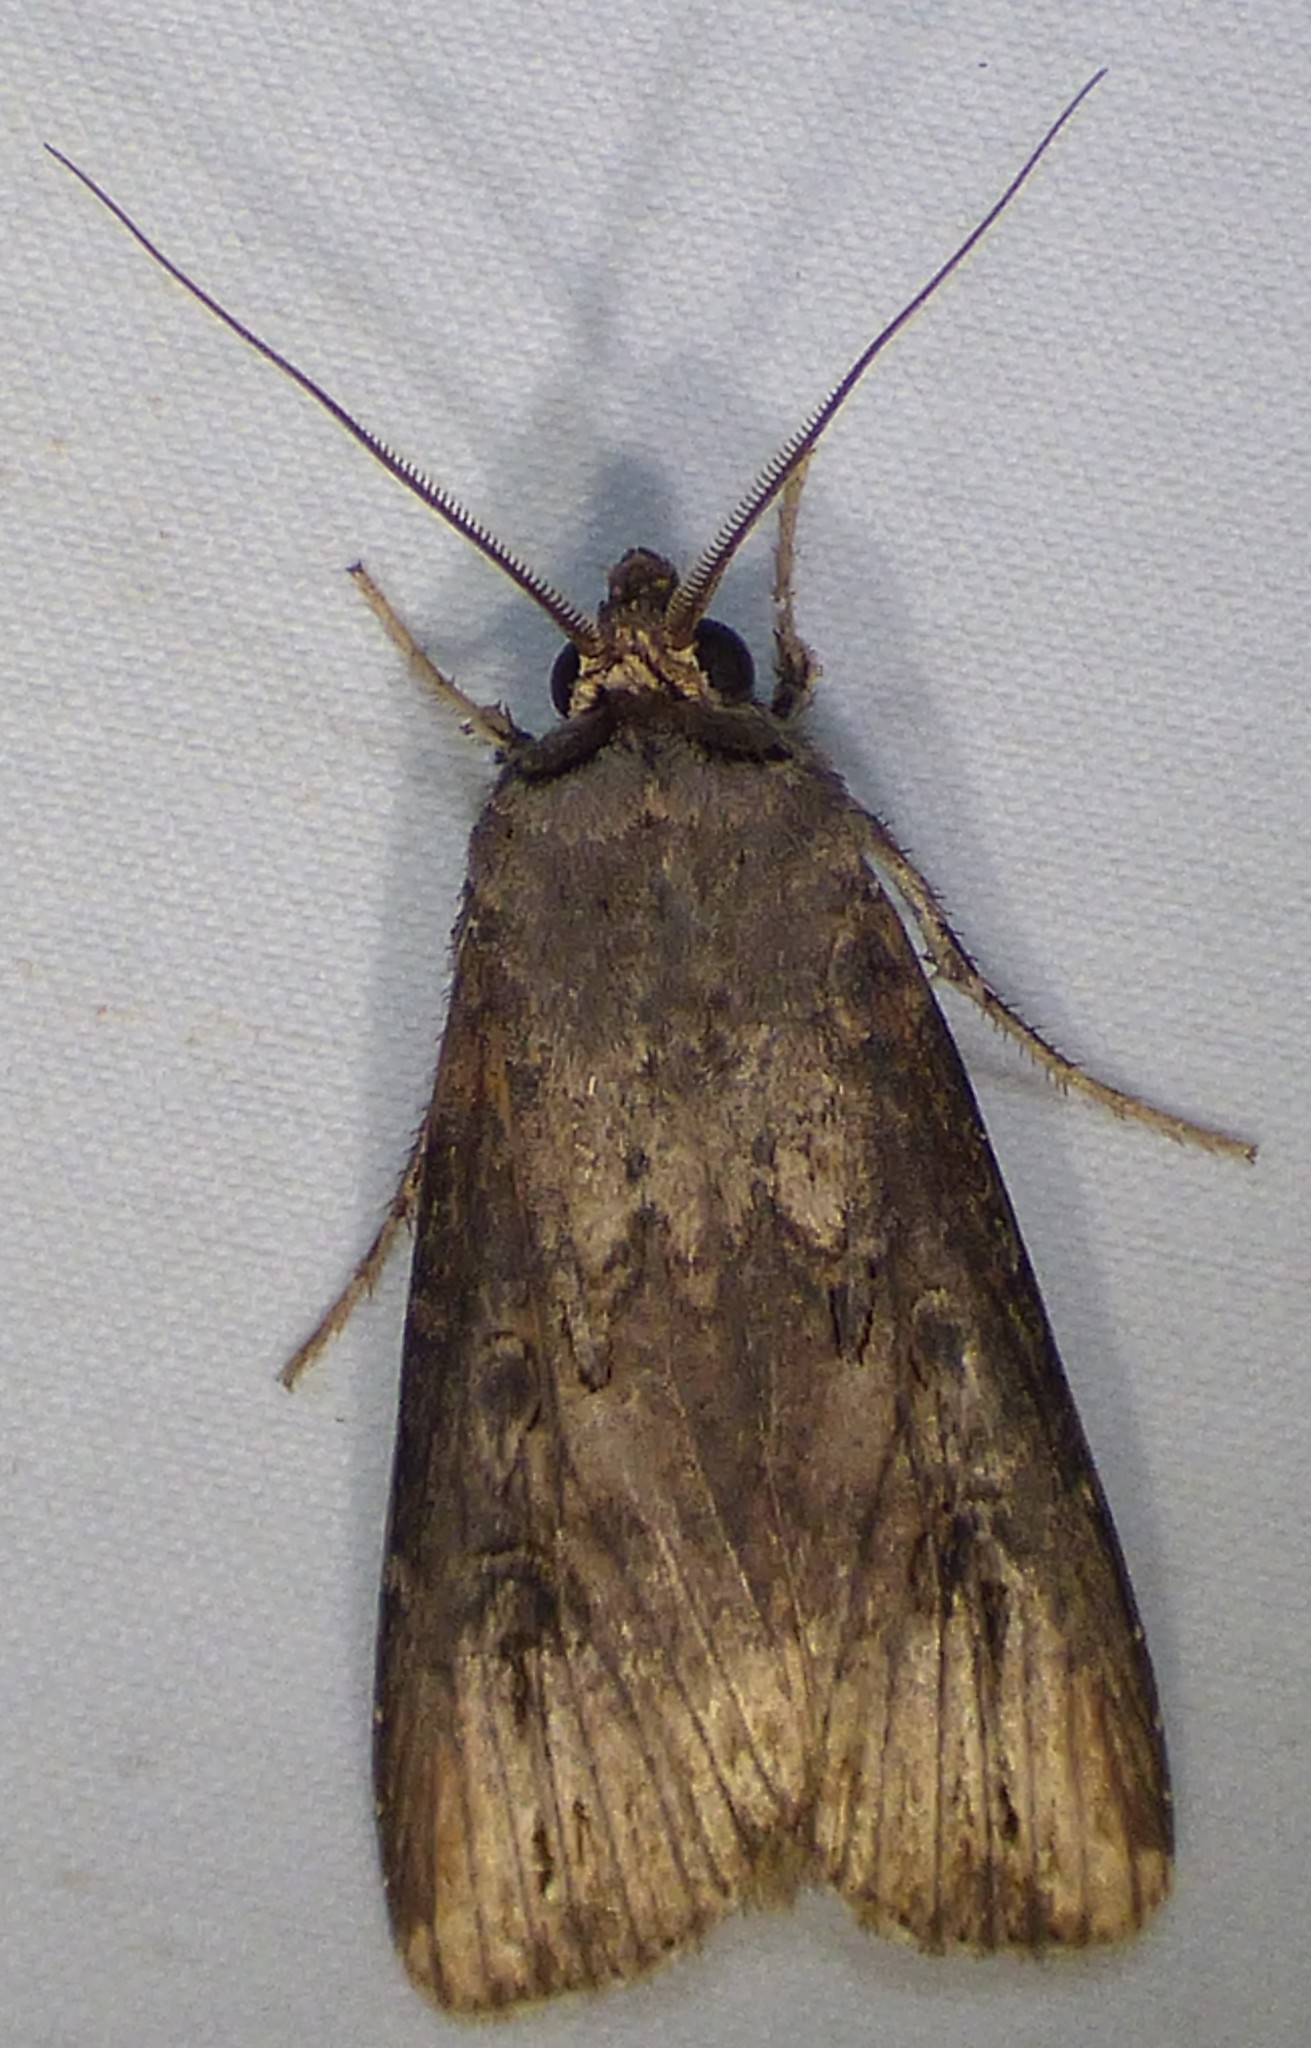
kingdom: Animalia
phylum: Arthropoda
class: Insecta
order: Lepidoptera
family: Noctuidae
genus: Agrotis
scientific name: Agrotis ipsilon
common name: Dark sword-grass
